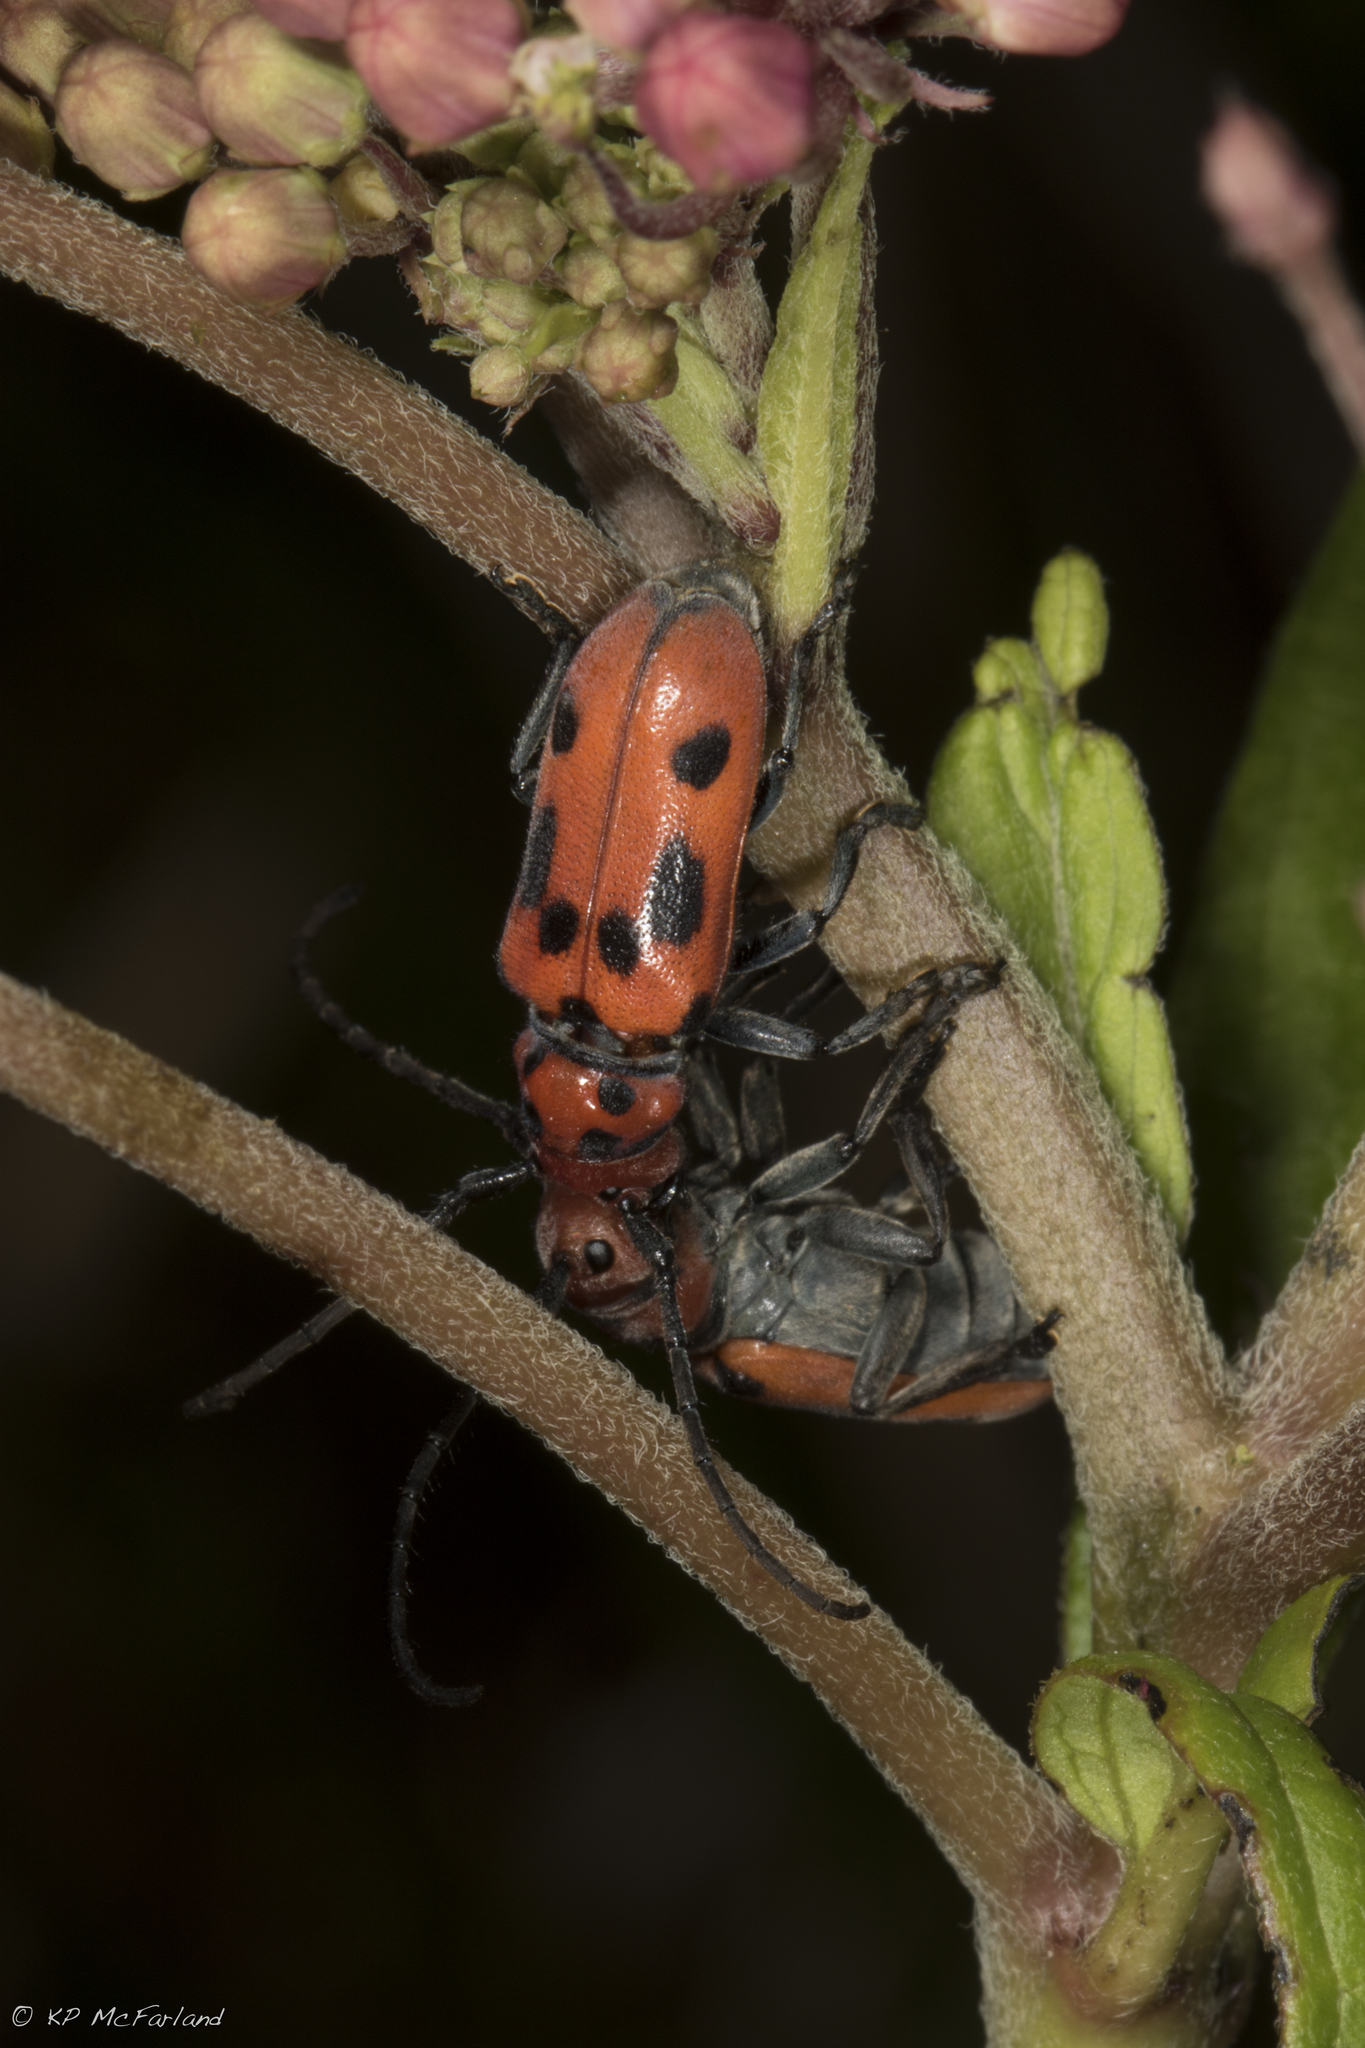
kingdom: Animalia
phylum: Arthropoda
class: Insecta
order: Coleoptera
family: Cerambycidae
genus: Tetraopes
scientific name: Tetraopes tetrophthalmus
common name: Red milkweed beetle
